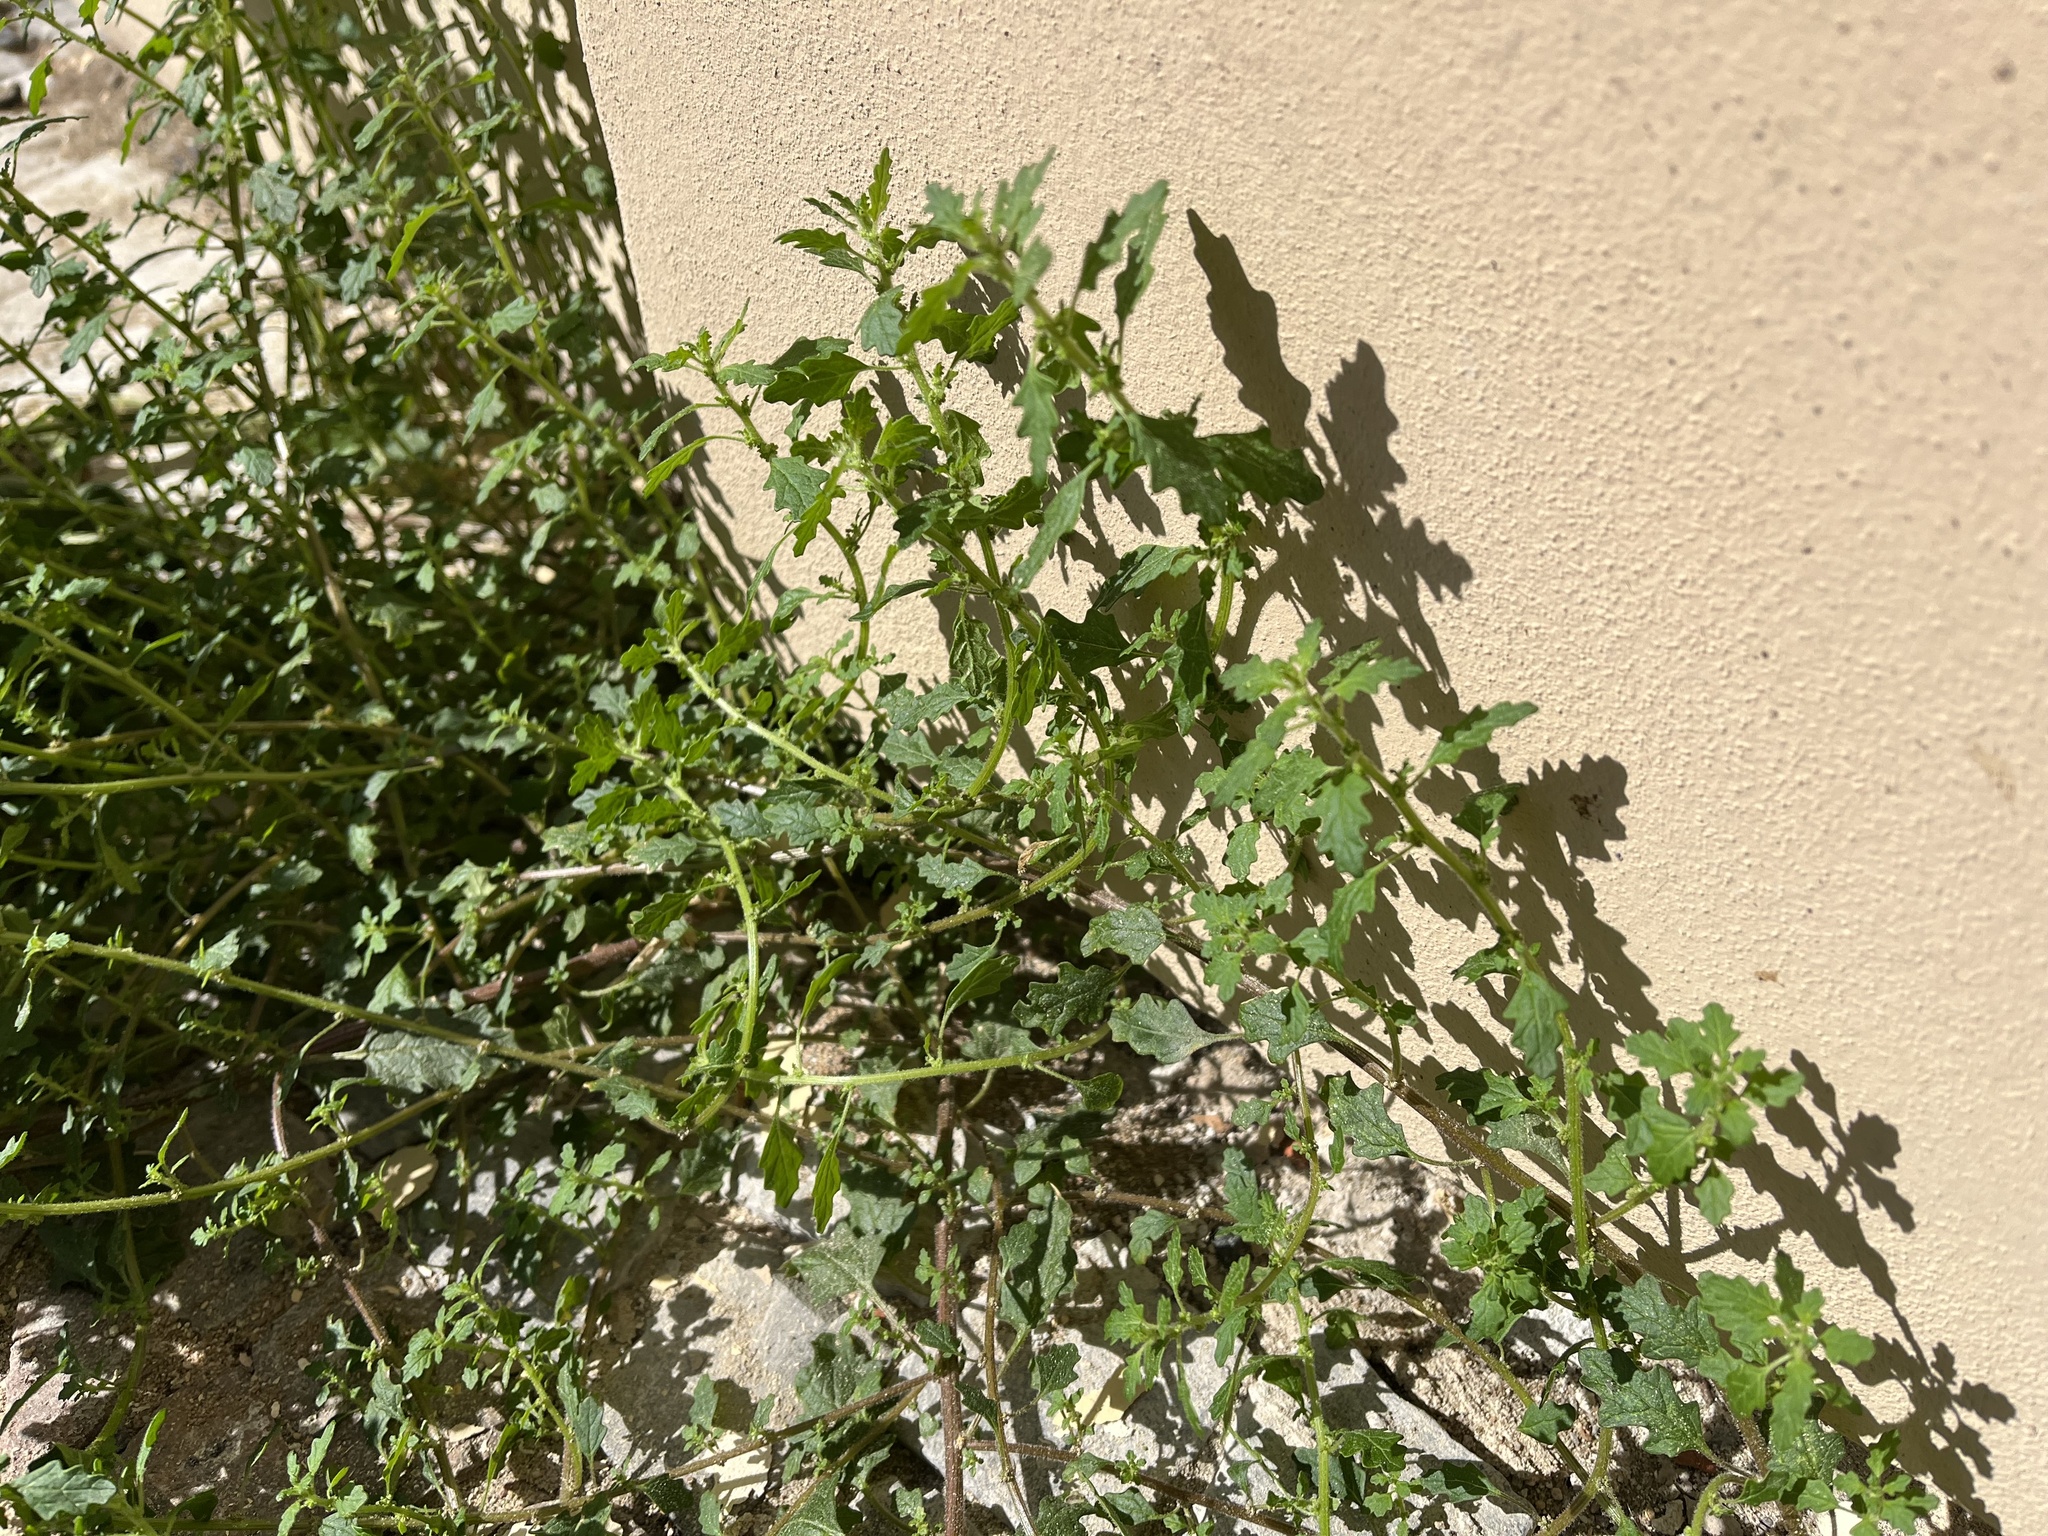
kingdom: Plantae
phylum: Tracheophyta
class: Magnoliopsida
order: Caryophyllales
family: Amaranthaceae
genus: Dysphania
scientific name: Dysphania pumilio
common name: Clammy goosefoot
